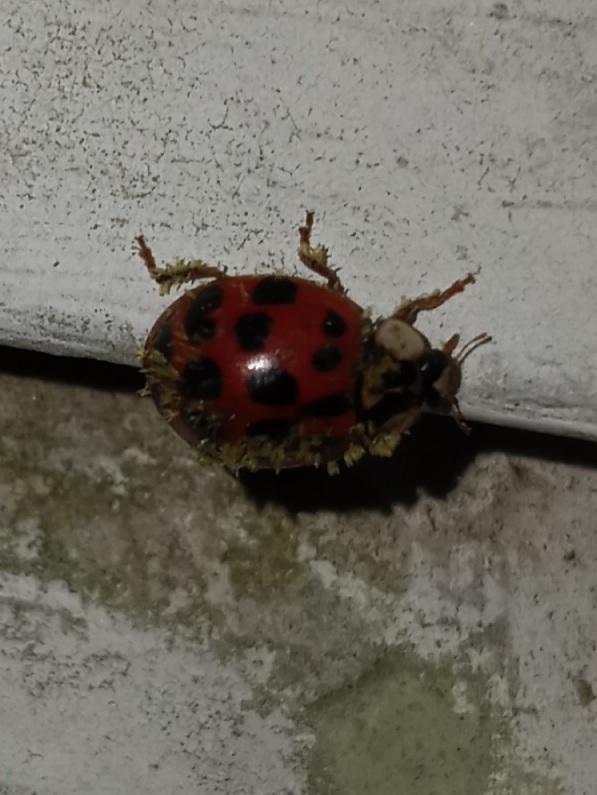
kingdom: Fungi
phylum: Ascomycota
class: Laboulbeniomycetes
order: Laboulbeniales
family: Laboulbeniaceae
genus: Hesperomyces
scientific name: Hesperomyces harmoniae
